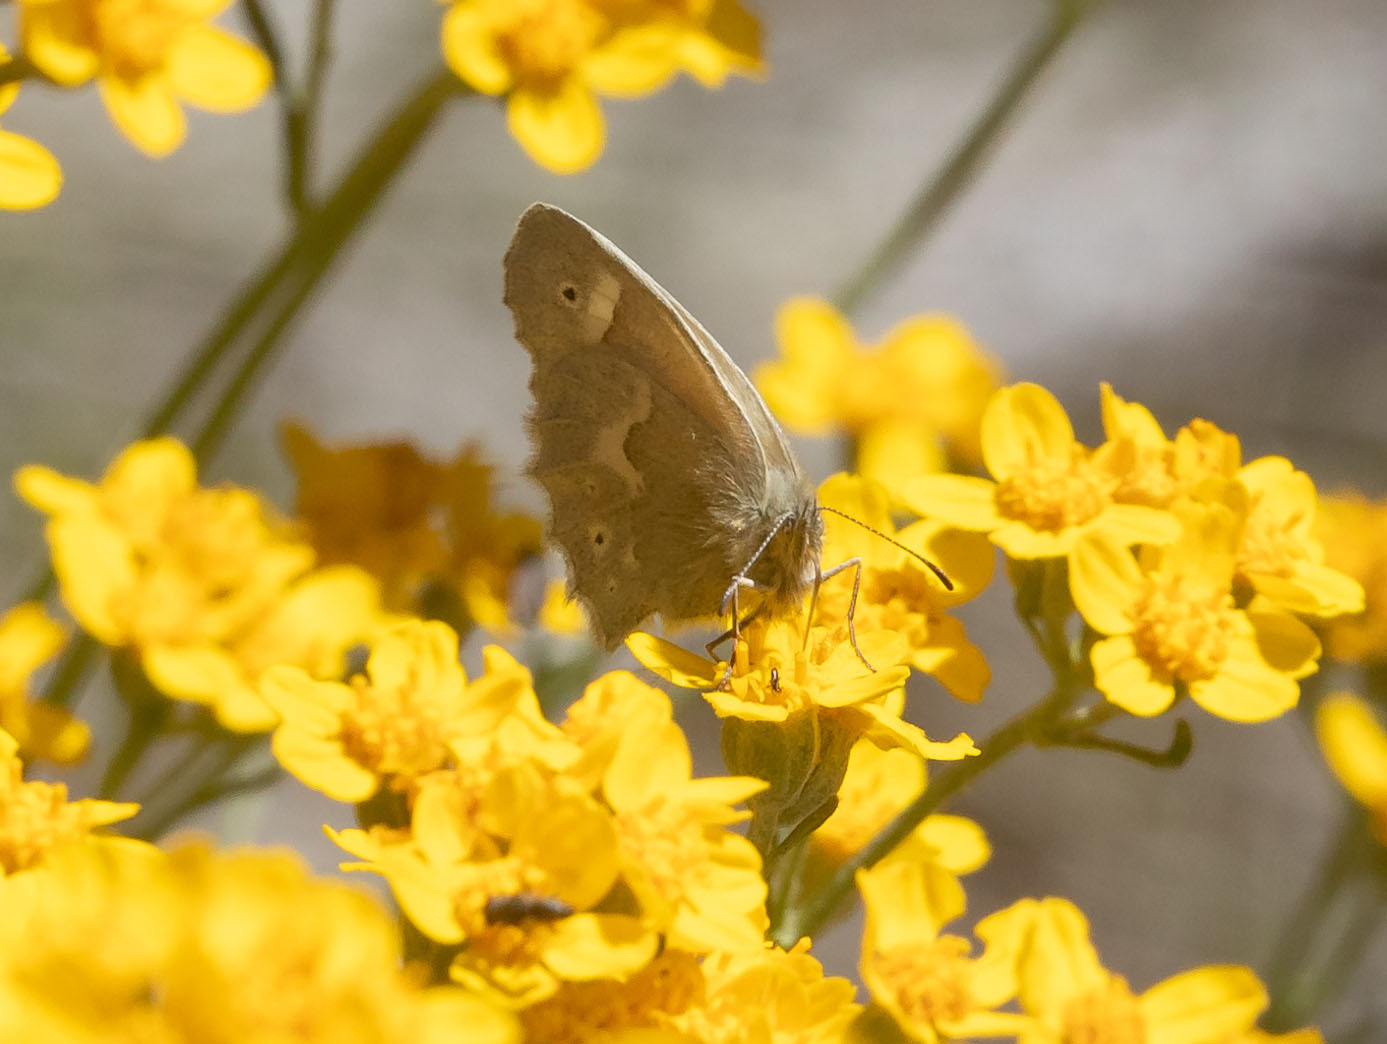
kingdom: Animalia
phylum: Arthropoda
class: Insecta
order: Lepidoptera
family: Nymphalidae
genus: Coenonympha
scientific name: Coenonympha california
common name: Common ringlet
